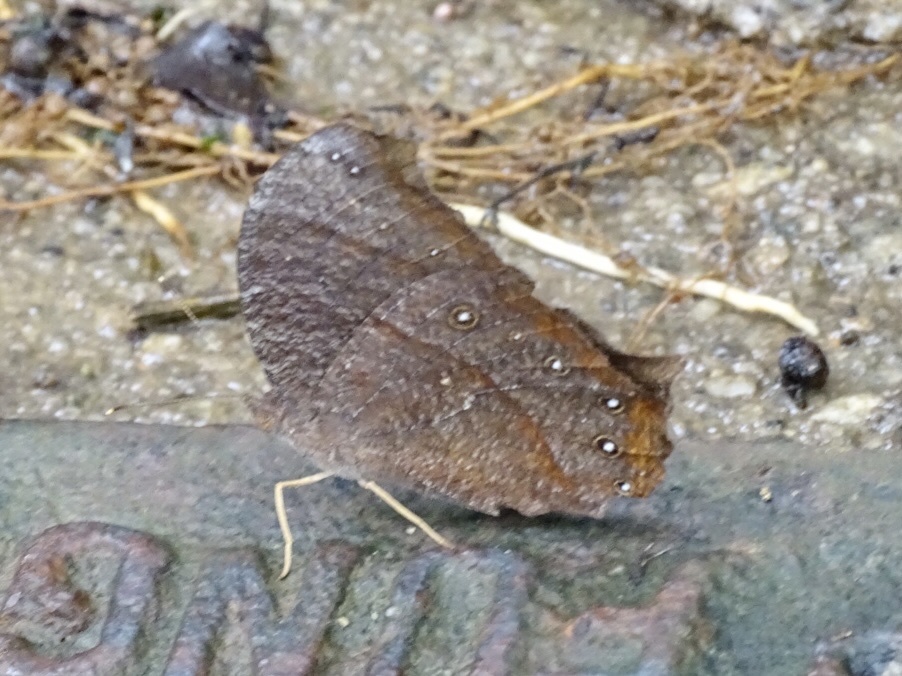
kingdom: Animalia
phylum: Arthropoda
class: Insecta
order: Lepidoptera
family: Nymphalidae
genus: Melanitis
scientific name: Melanitis phedima
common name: Dark evening brown
